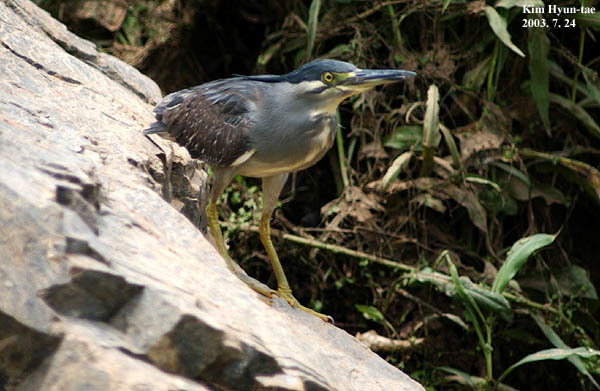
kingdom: Animalia
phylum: Chordata
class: Aves
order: Pelecaniformes
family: Ardeidae
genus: Butorides
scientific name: Butorides striata
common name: Striated heron
